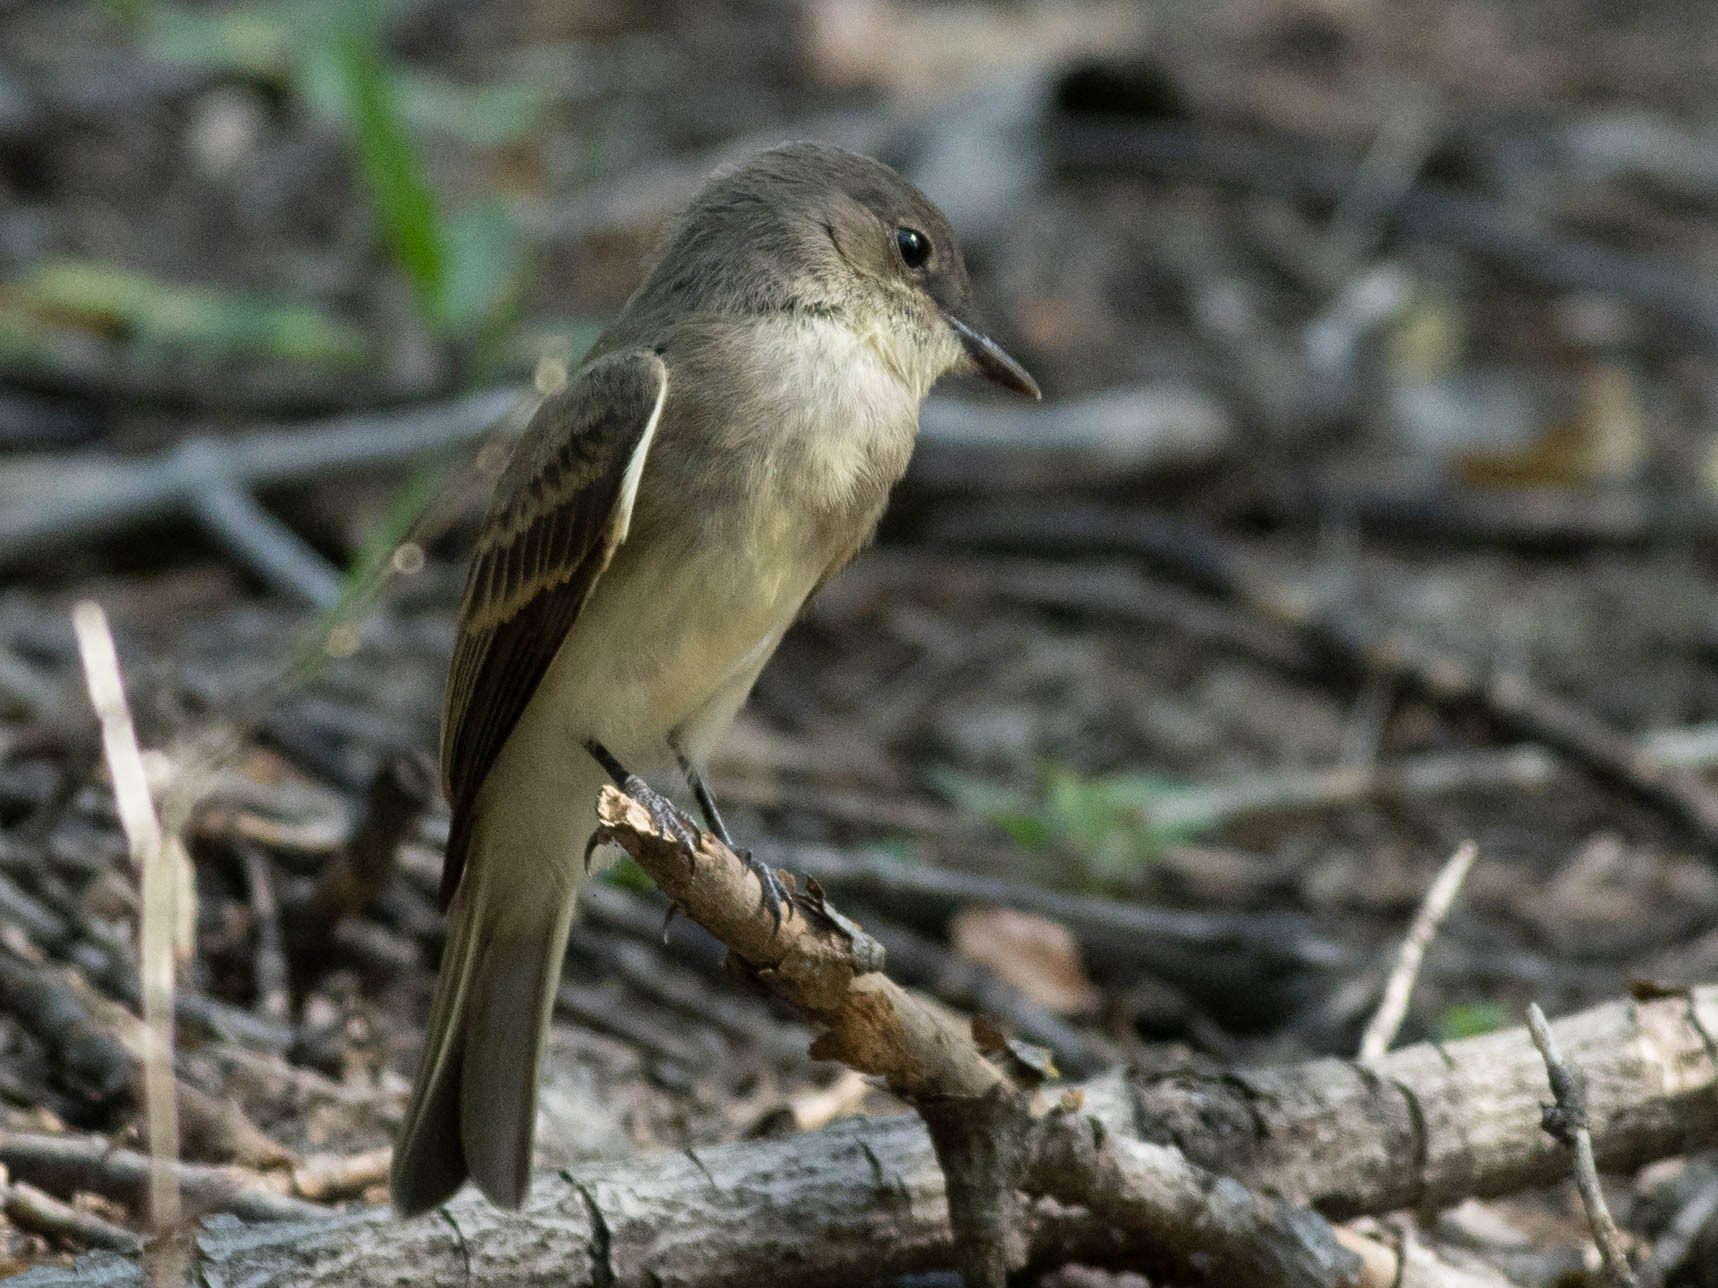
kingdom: Animalia
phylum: Chordata
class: Aves
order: Passeriformes
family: Tyrannidae
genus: Sayornis
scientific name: Sayornis phoebe
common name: Eastern phoebe
